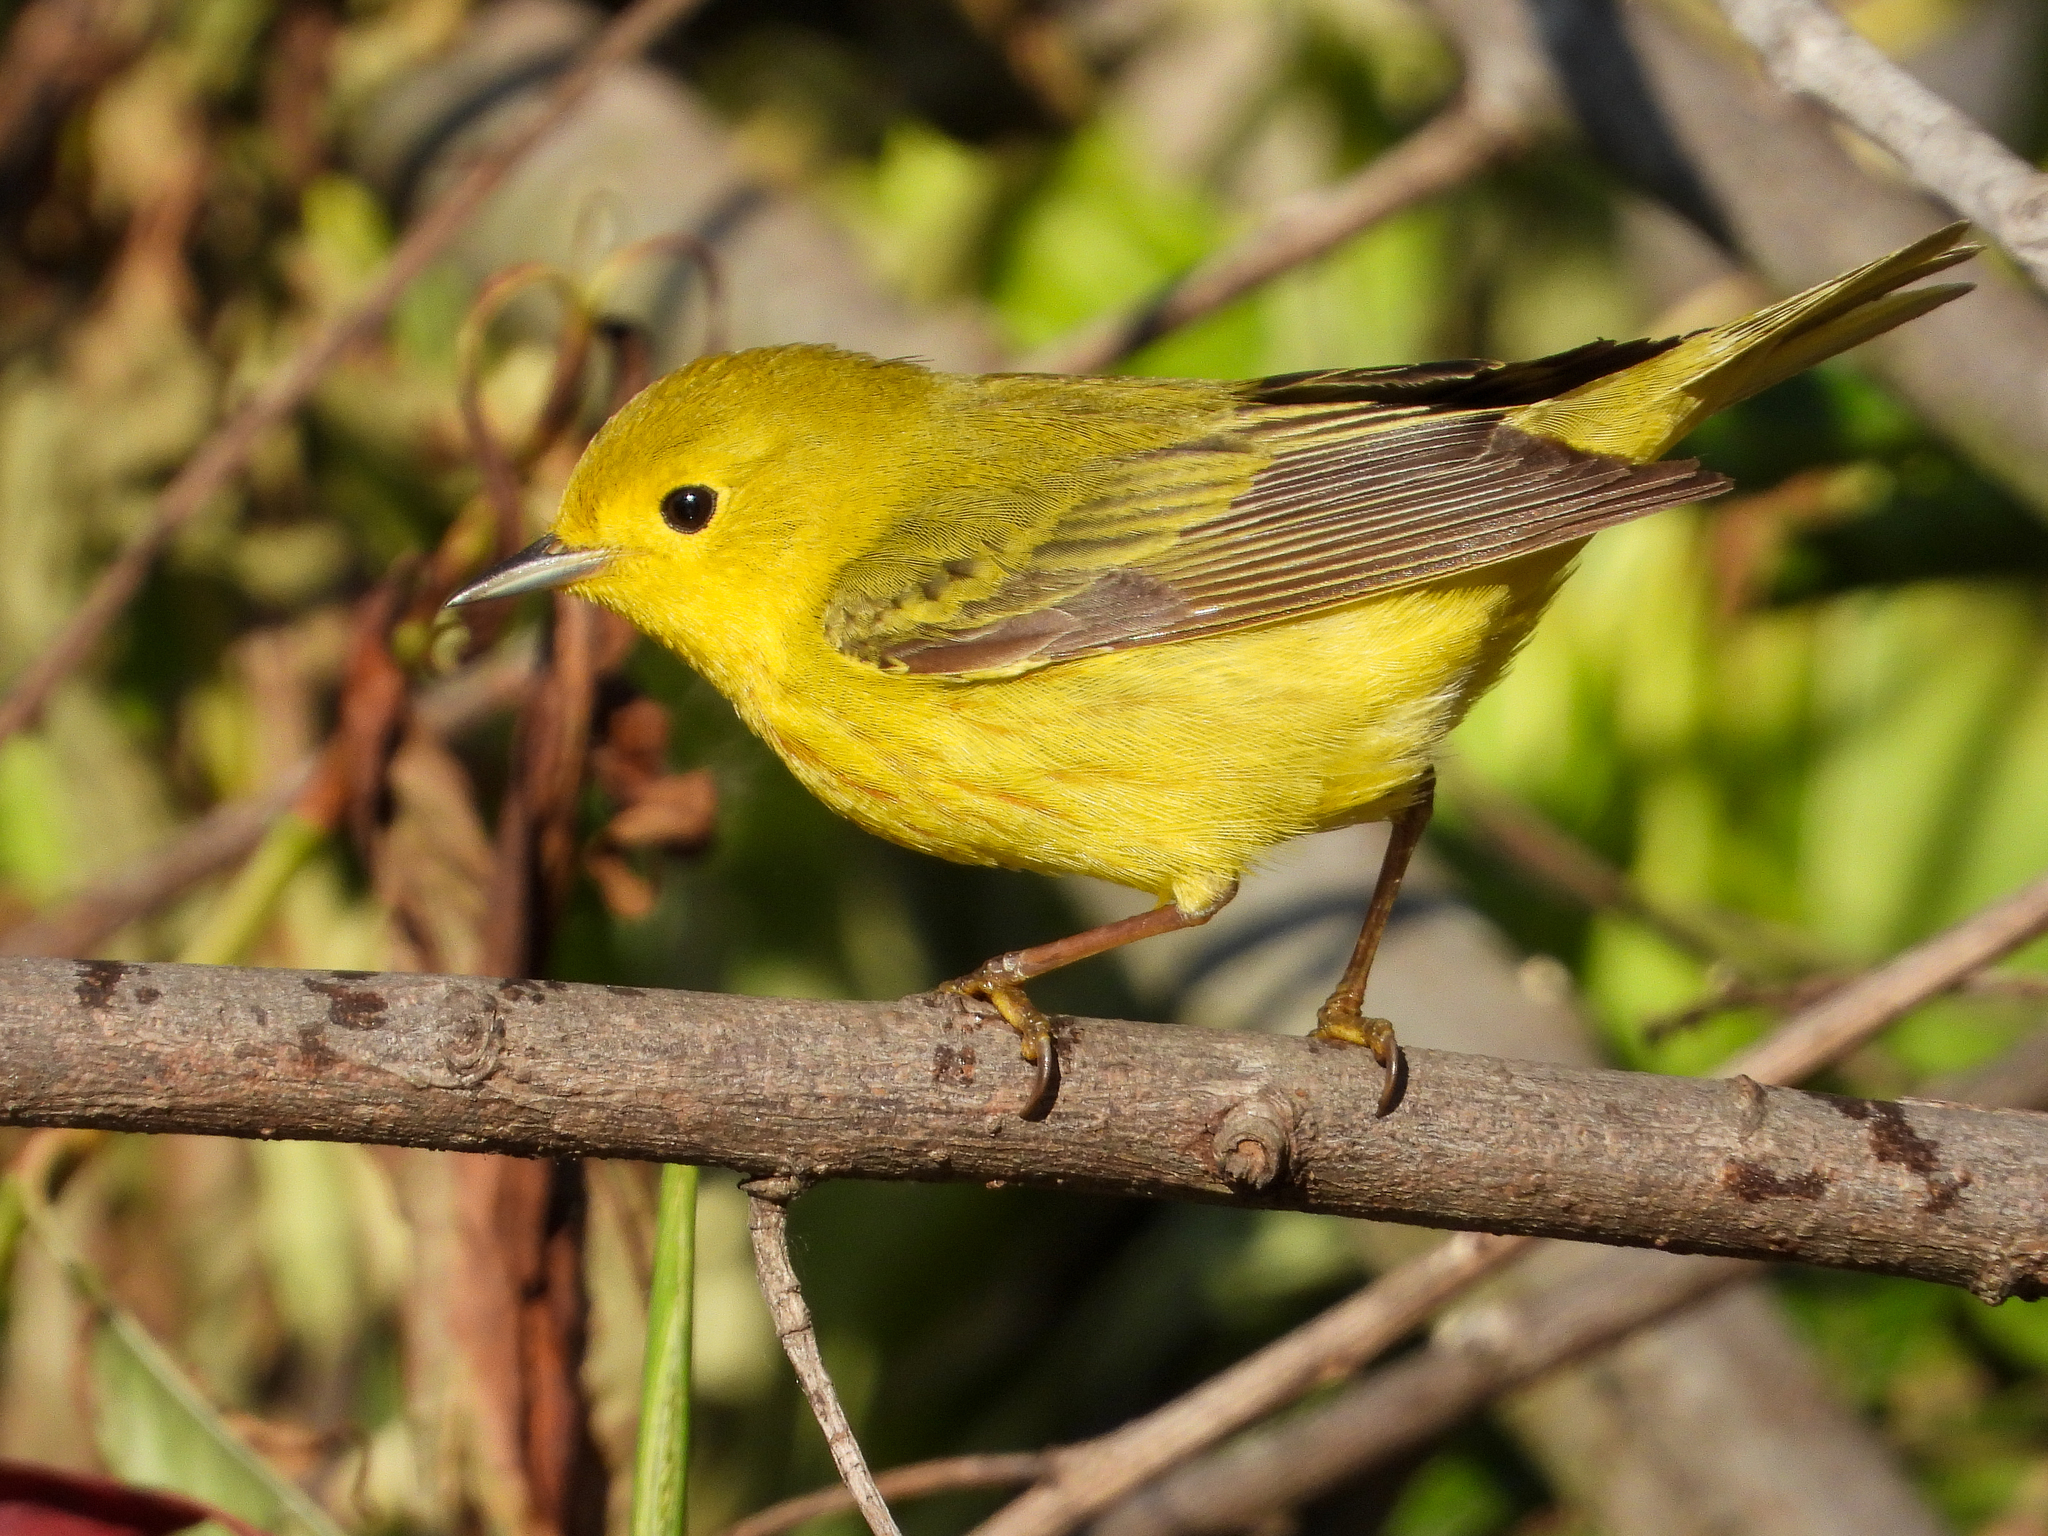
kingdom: Animalia
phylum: Chordata
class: Aves
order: Passeriformes
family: Parulidae
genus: Setophaga
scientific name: Setophaga petechia
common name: Yellow warbler
